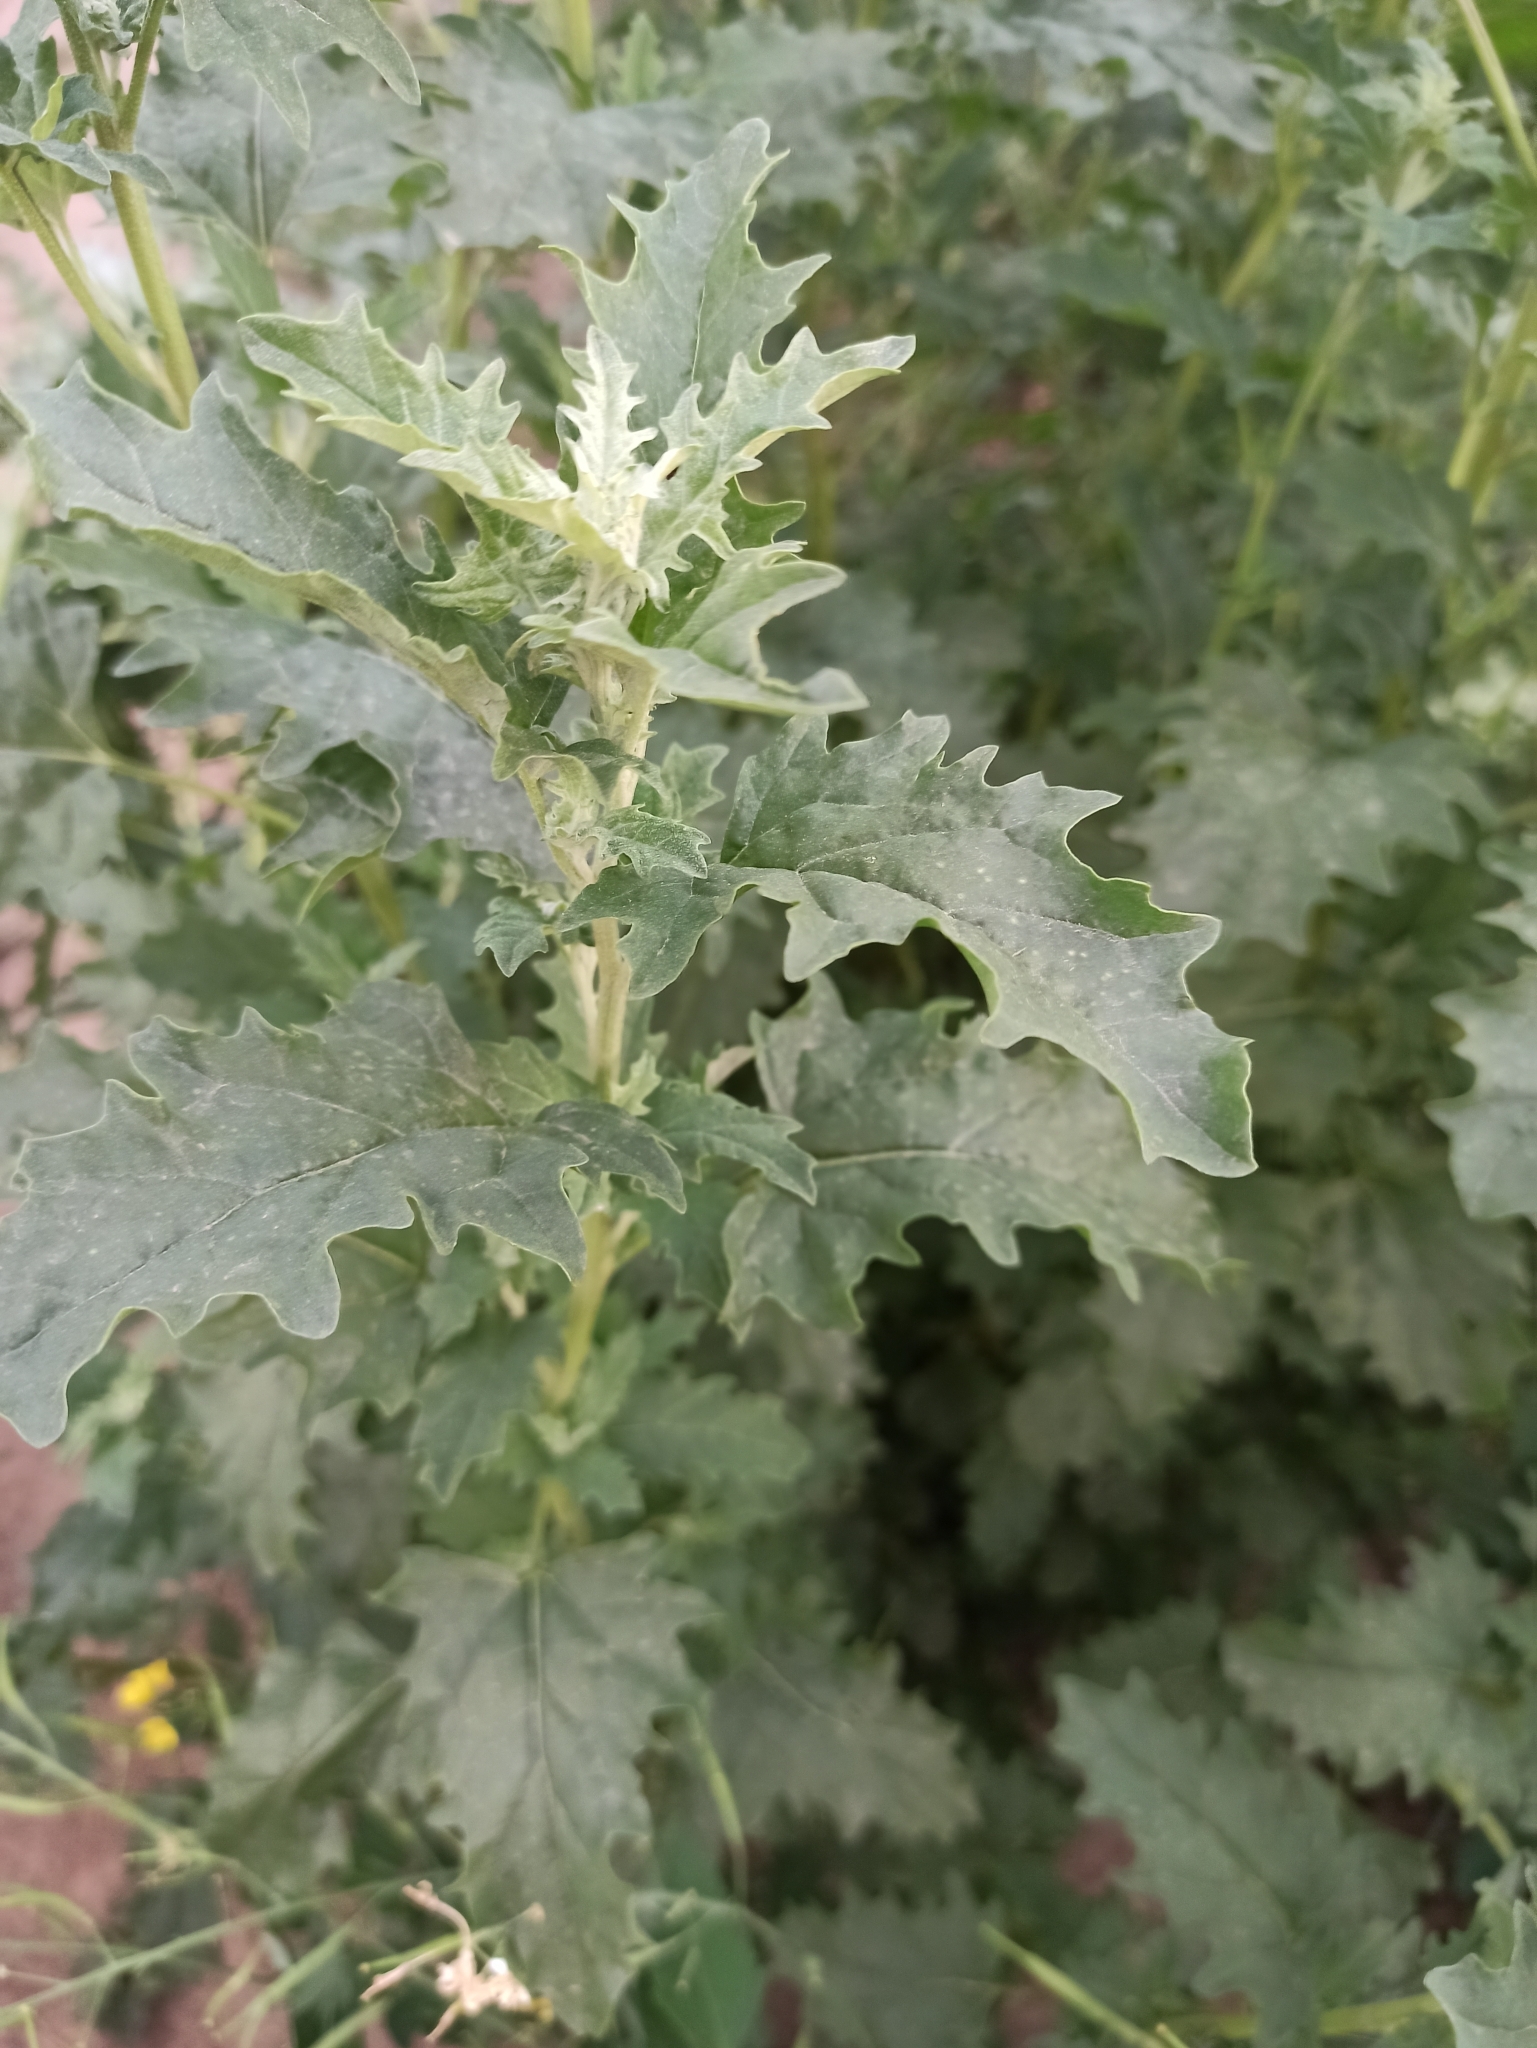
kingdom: Plantae
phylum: Tracheophyta
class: Magnoliopsida
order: Caryophyllales
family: Amaranthaceae
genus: Atriplex
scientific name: Atriplex tatarica
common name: Tatarian orache
